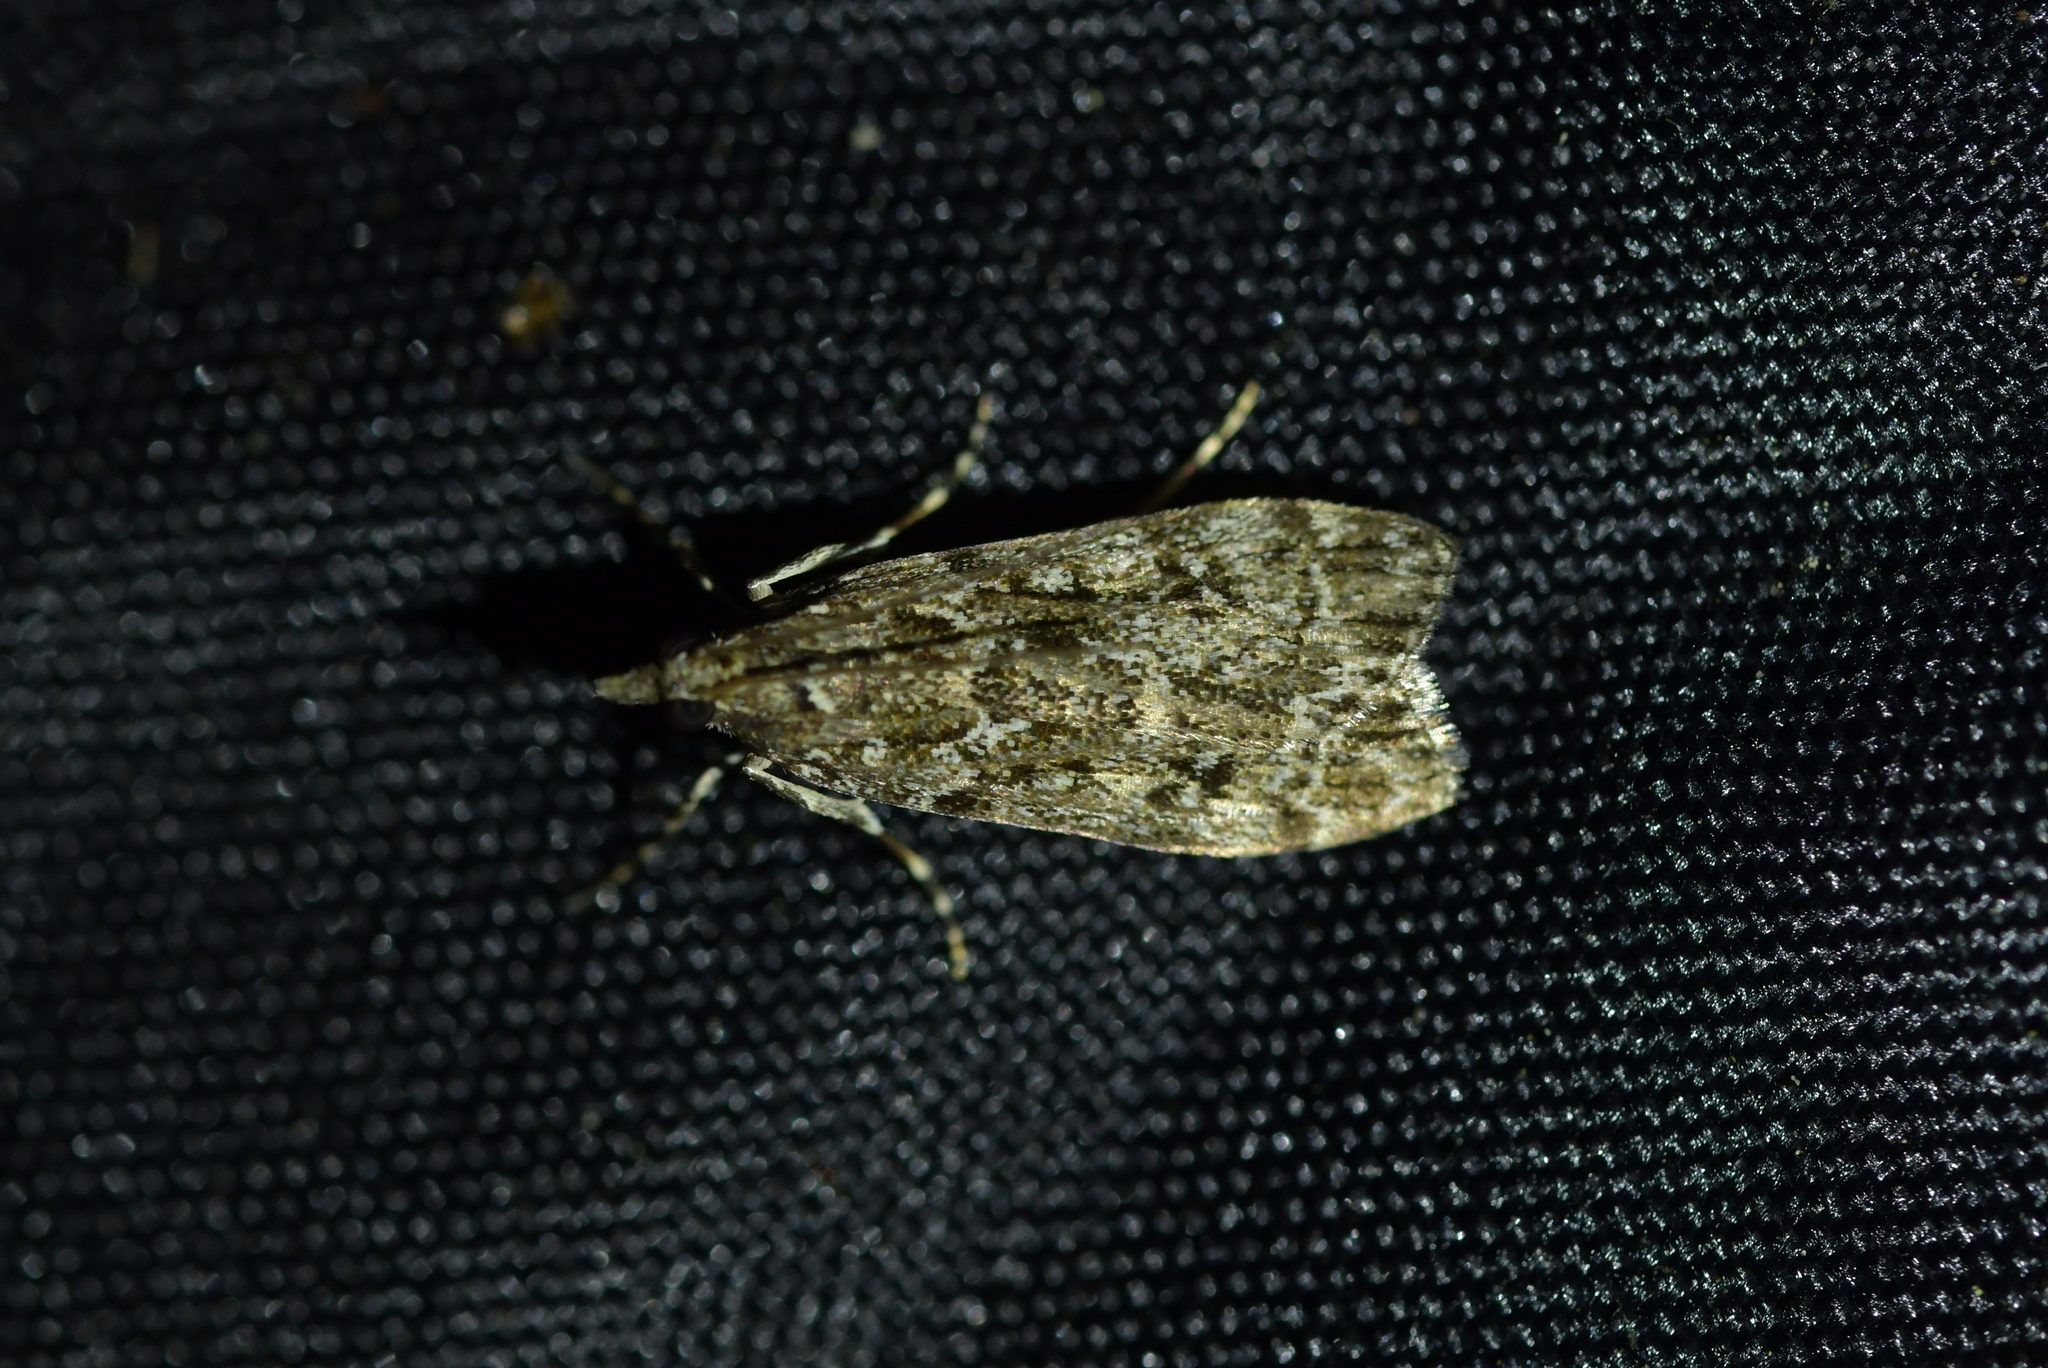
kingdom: Animalia
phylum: Arthropoda
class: Insecta
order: Lepidoptera
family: Crambidae
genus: Eudonia
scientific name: Eudonia philerga
